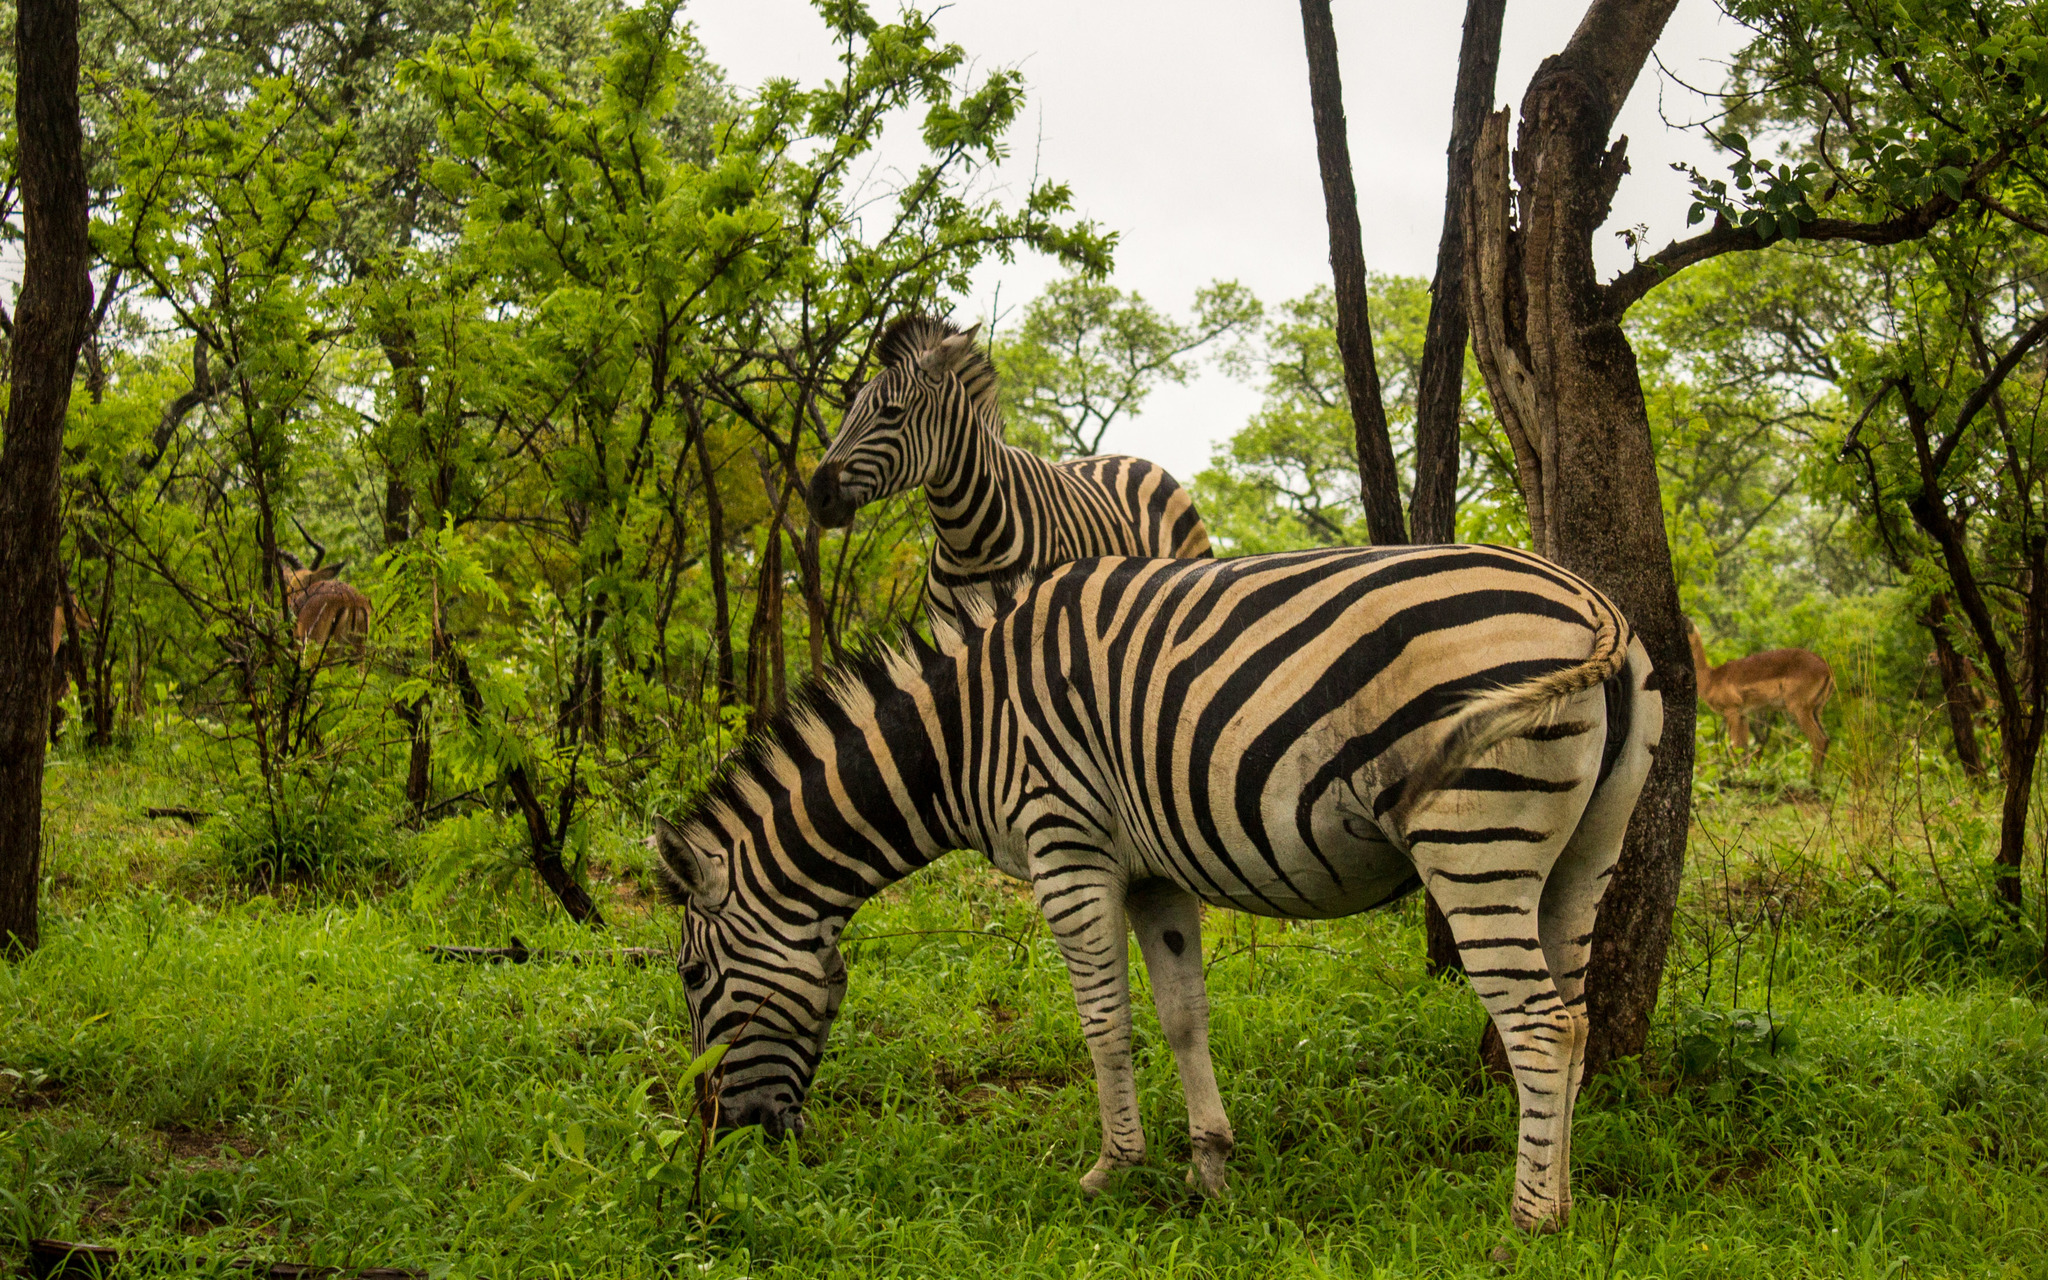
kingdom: Animalia
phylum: Chordata
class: Mammalia
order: Perissodactyla
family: Equidae
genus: Equus
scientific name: Equus quagga
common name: Plains zebra
